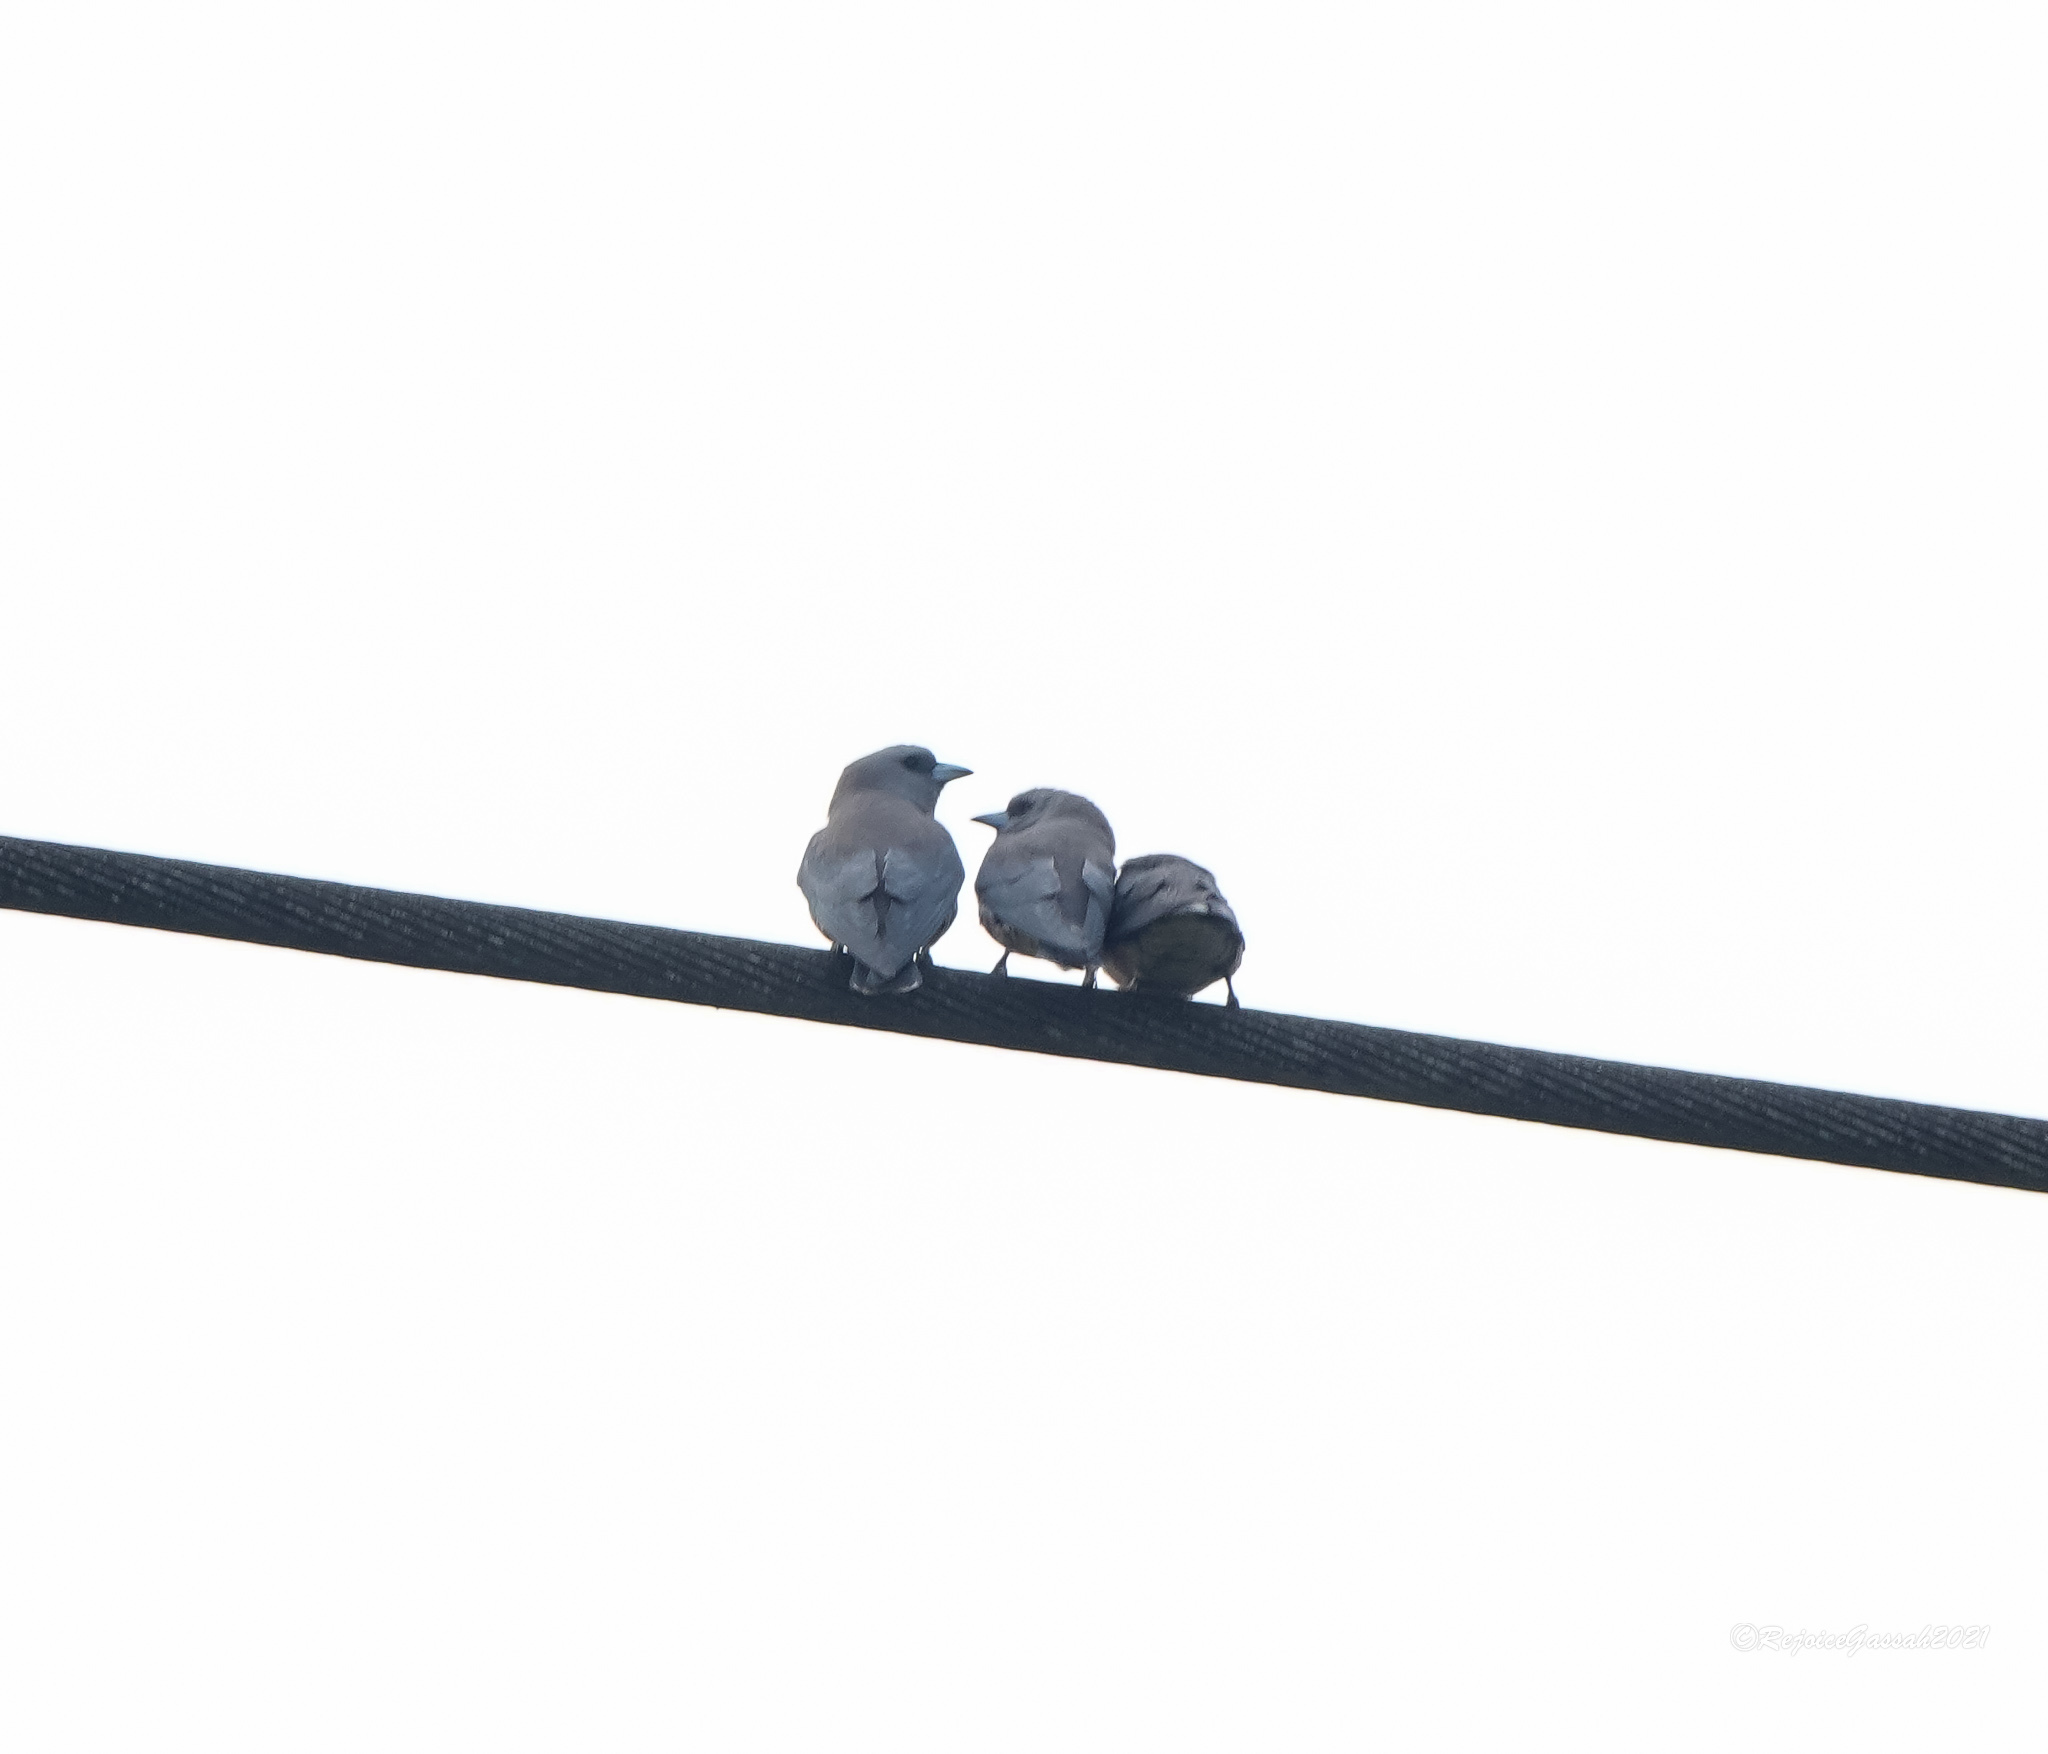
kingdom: Animalia
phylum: Chordata
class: Aves
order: Passeriformes
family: Artamidae
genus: Artamus
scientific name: Artamus fuscus
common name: Ashy woodswallow
